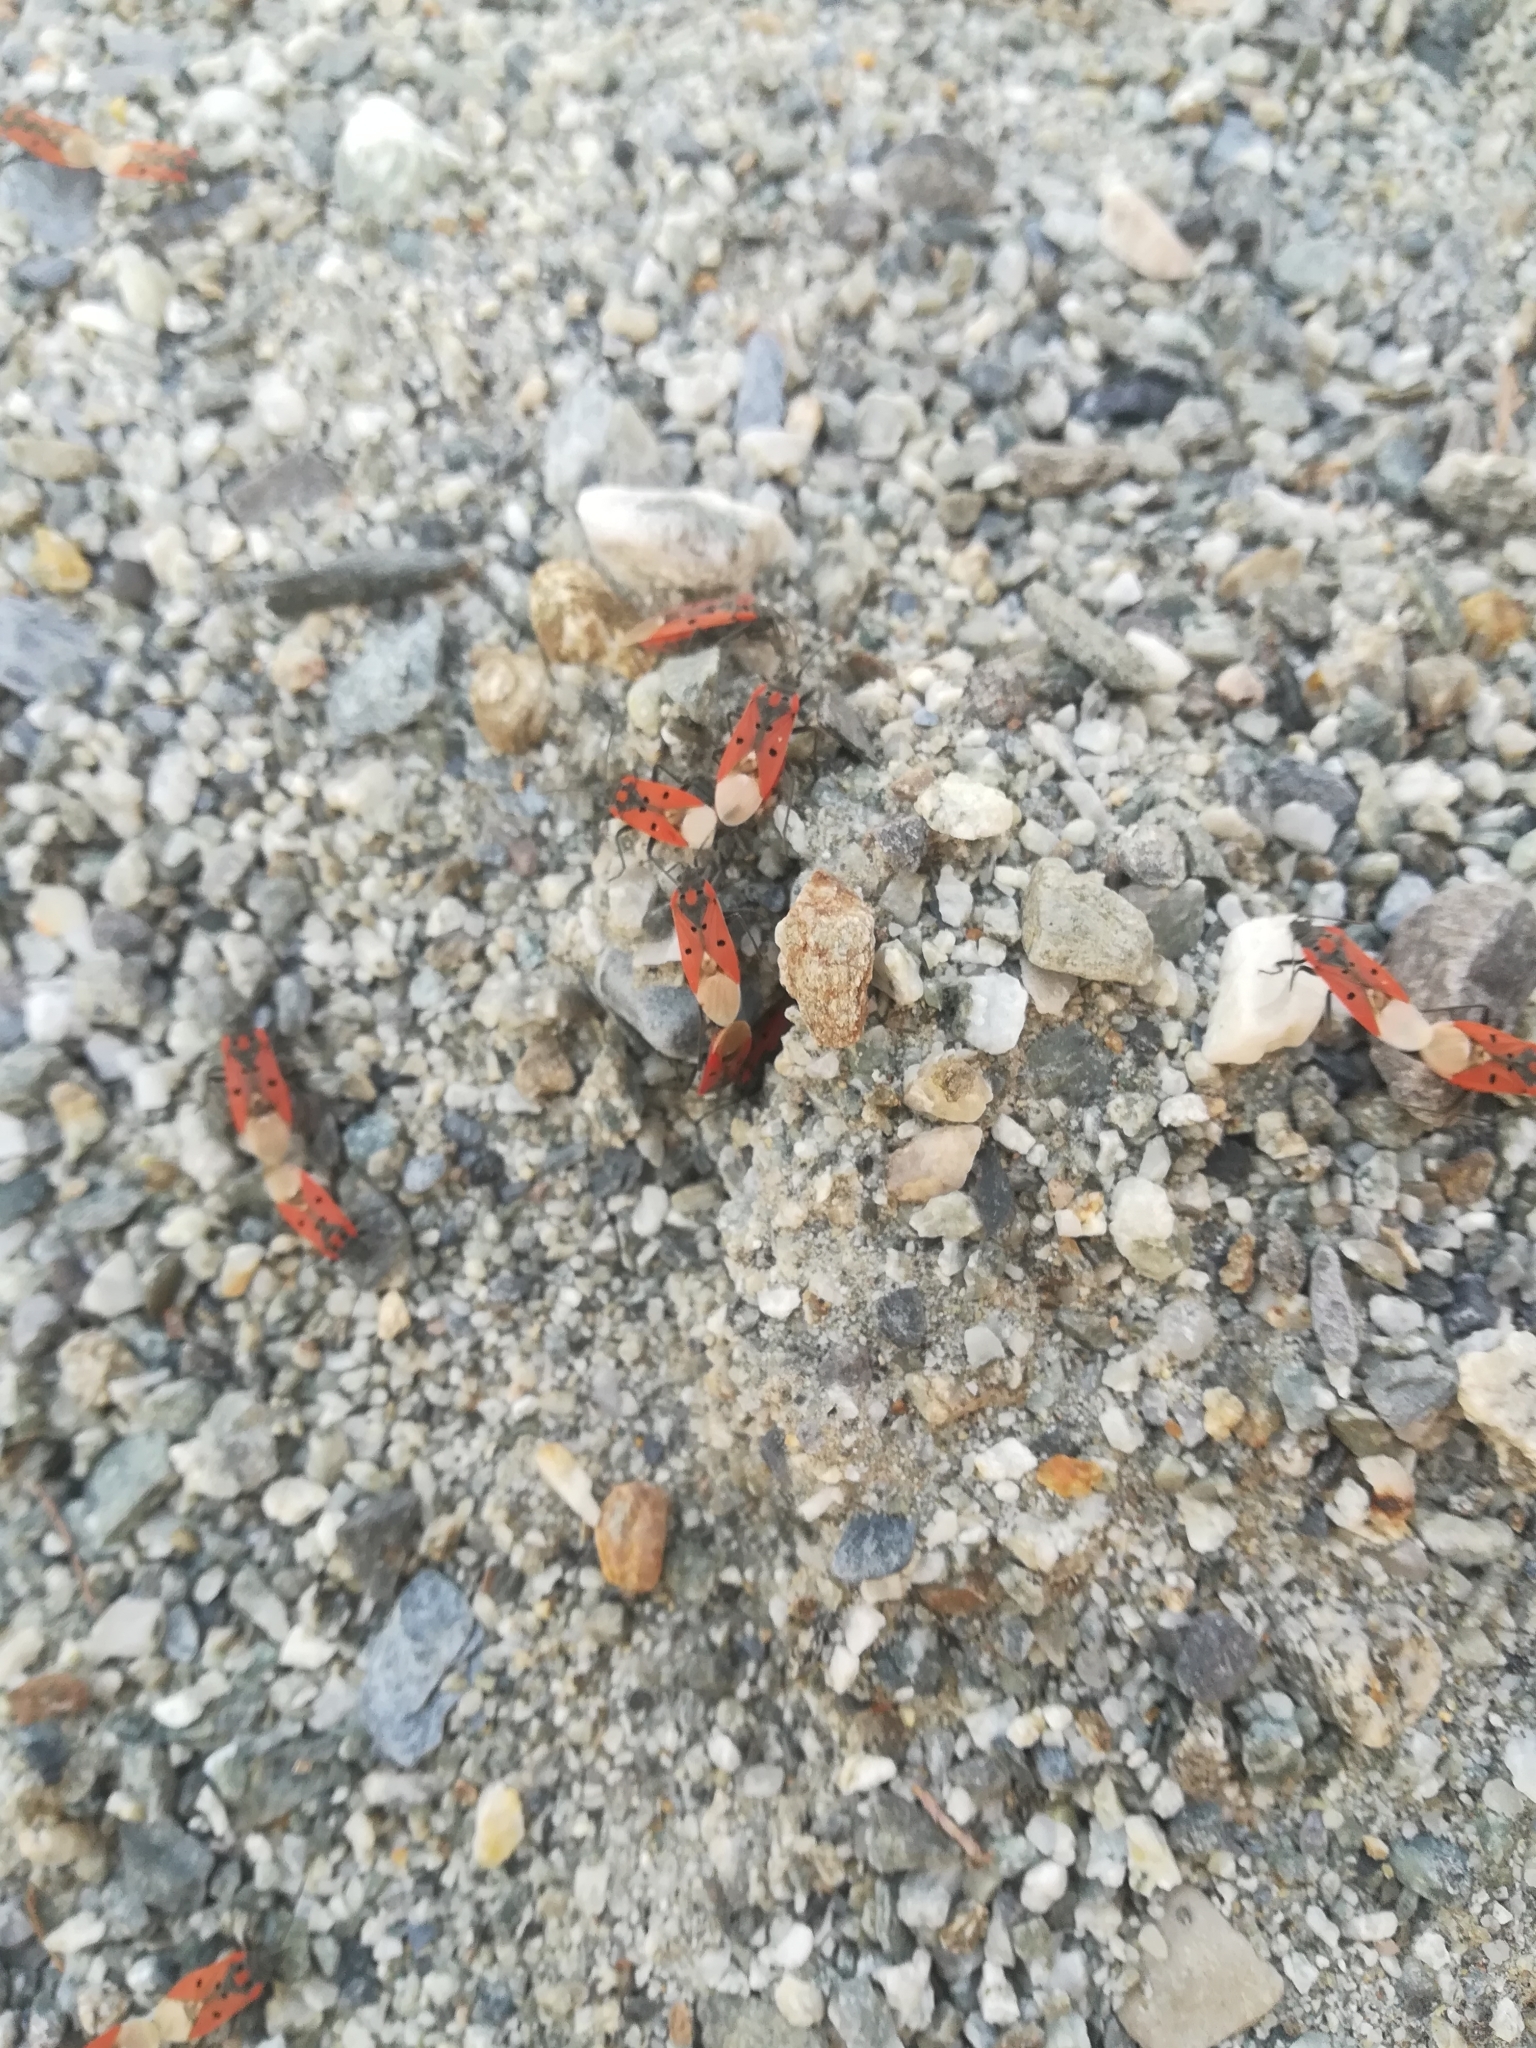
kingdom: Animalia
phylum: Arthropoda
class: Insecta
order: Hemiptera
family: Lygaeidae
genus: Lygaeus
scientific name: Lygaeus creticus
